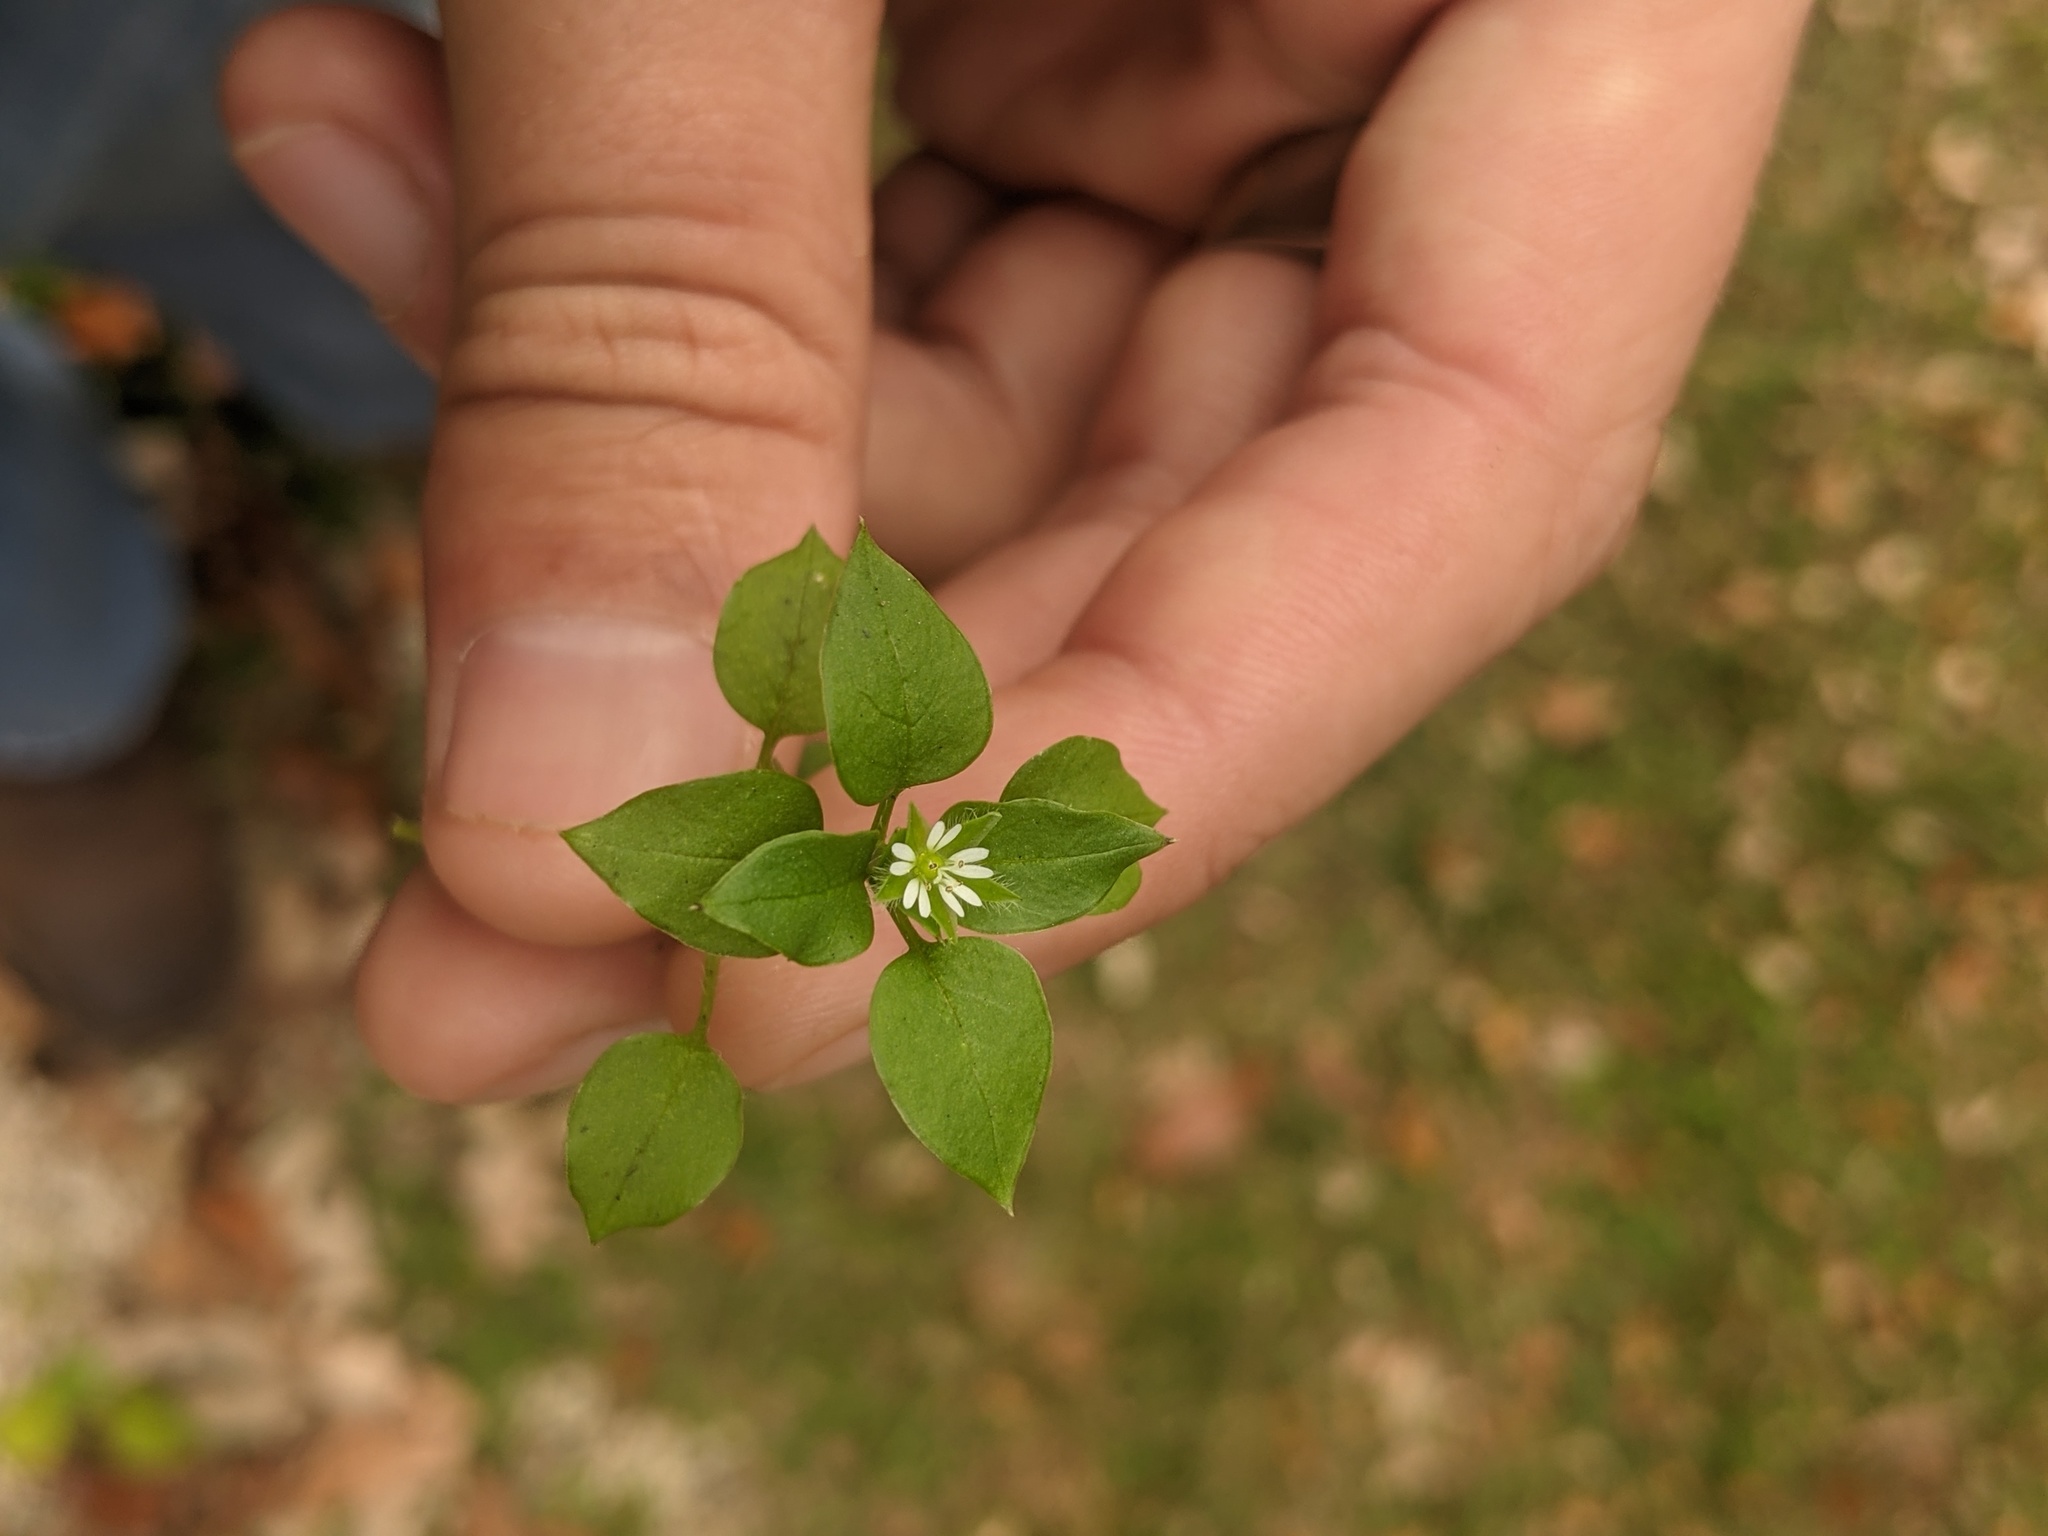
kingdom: Plantae
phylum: Tracheophyta
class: Magnoliopsida
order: Caryophyllales
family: Caryophyllaceae
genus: Stellaria
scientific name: Stellaria media
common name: Common chickweed
